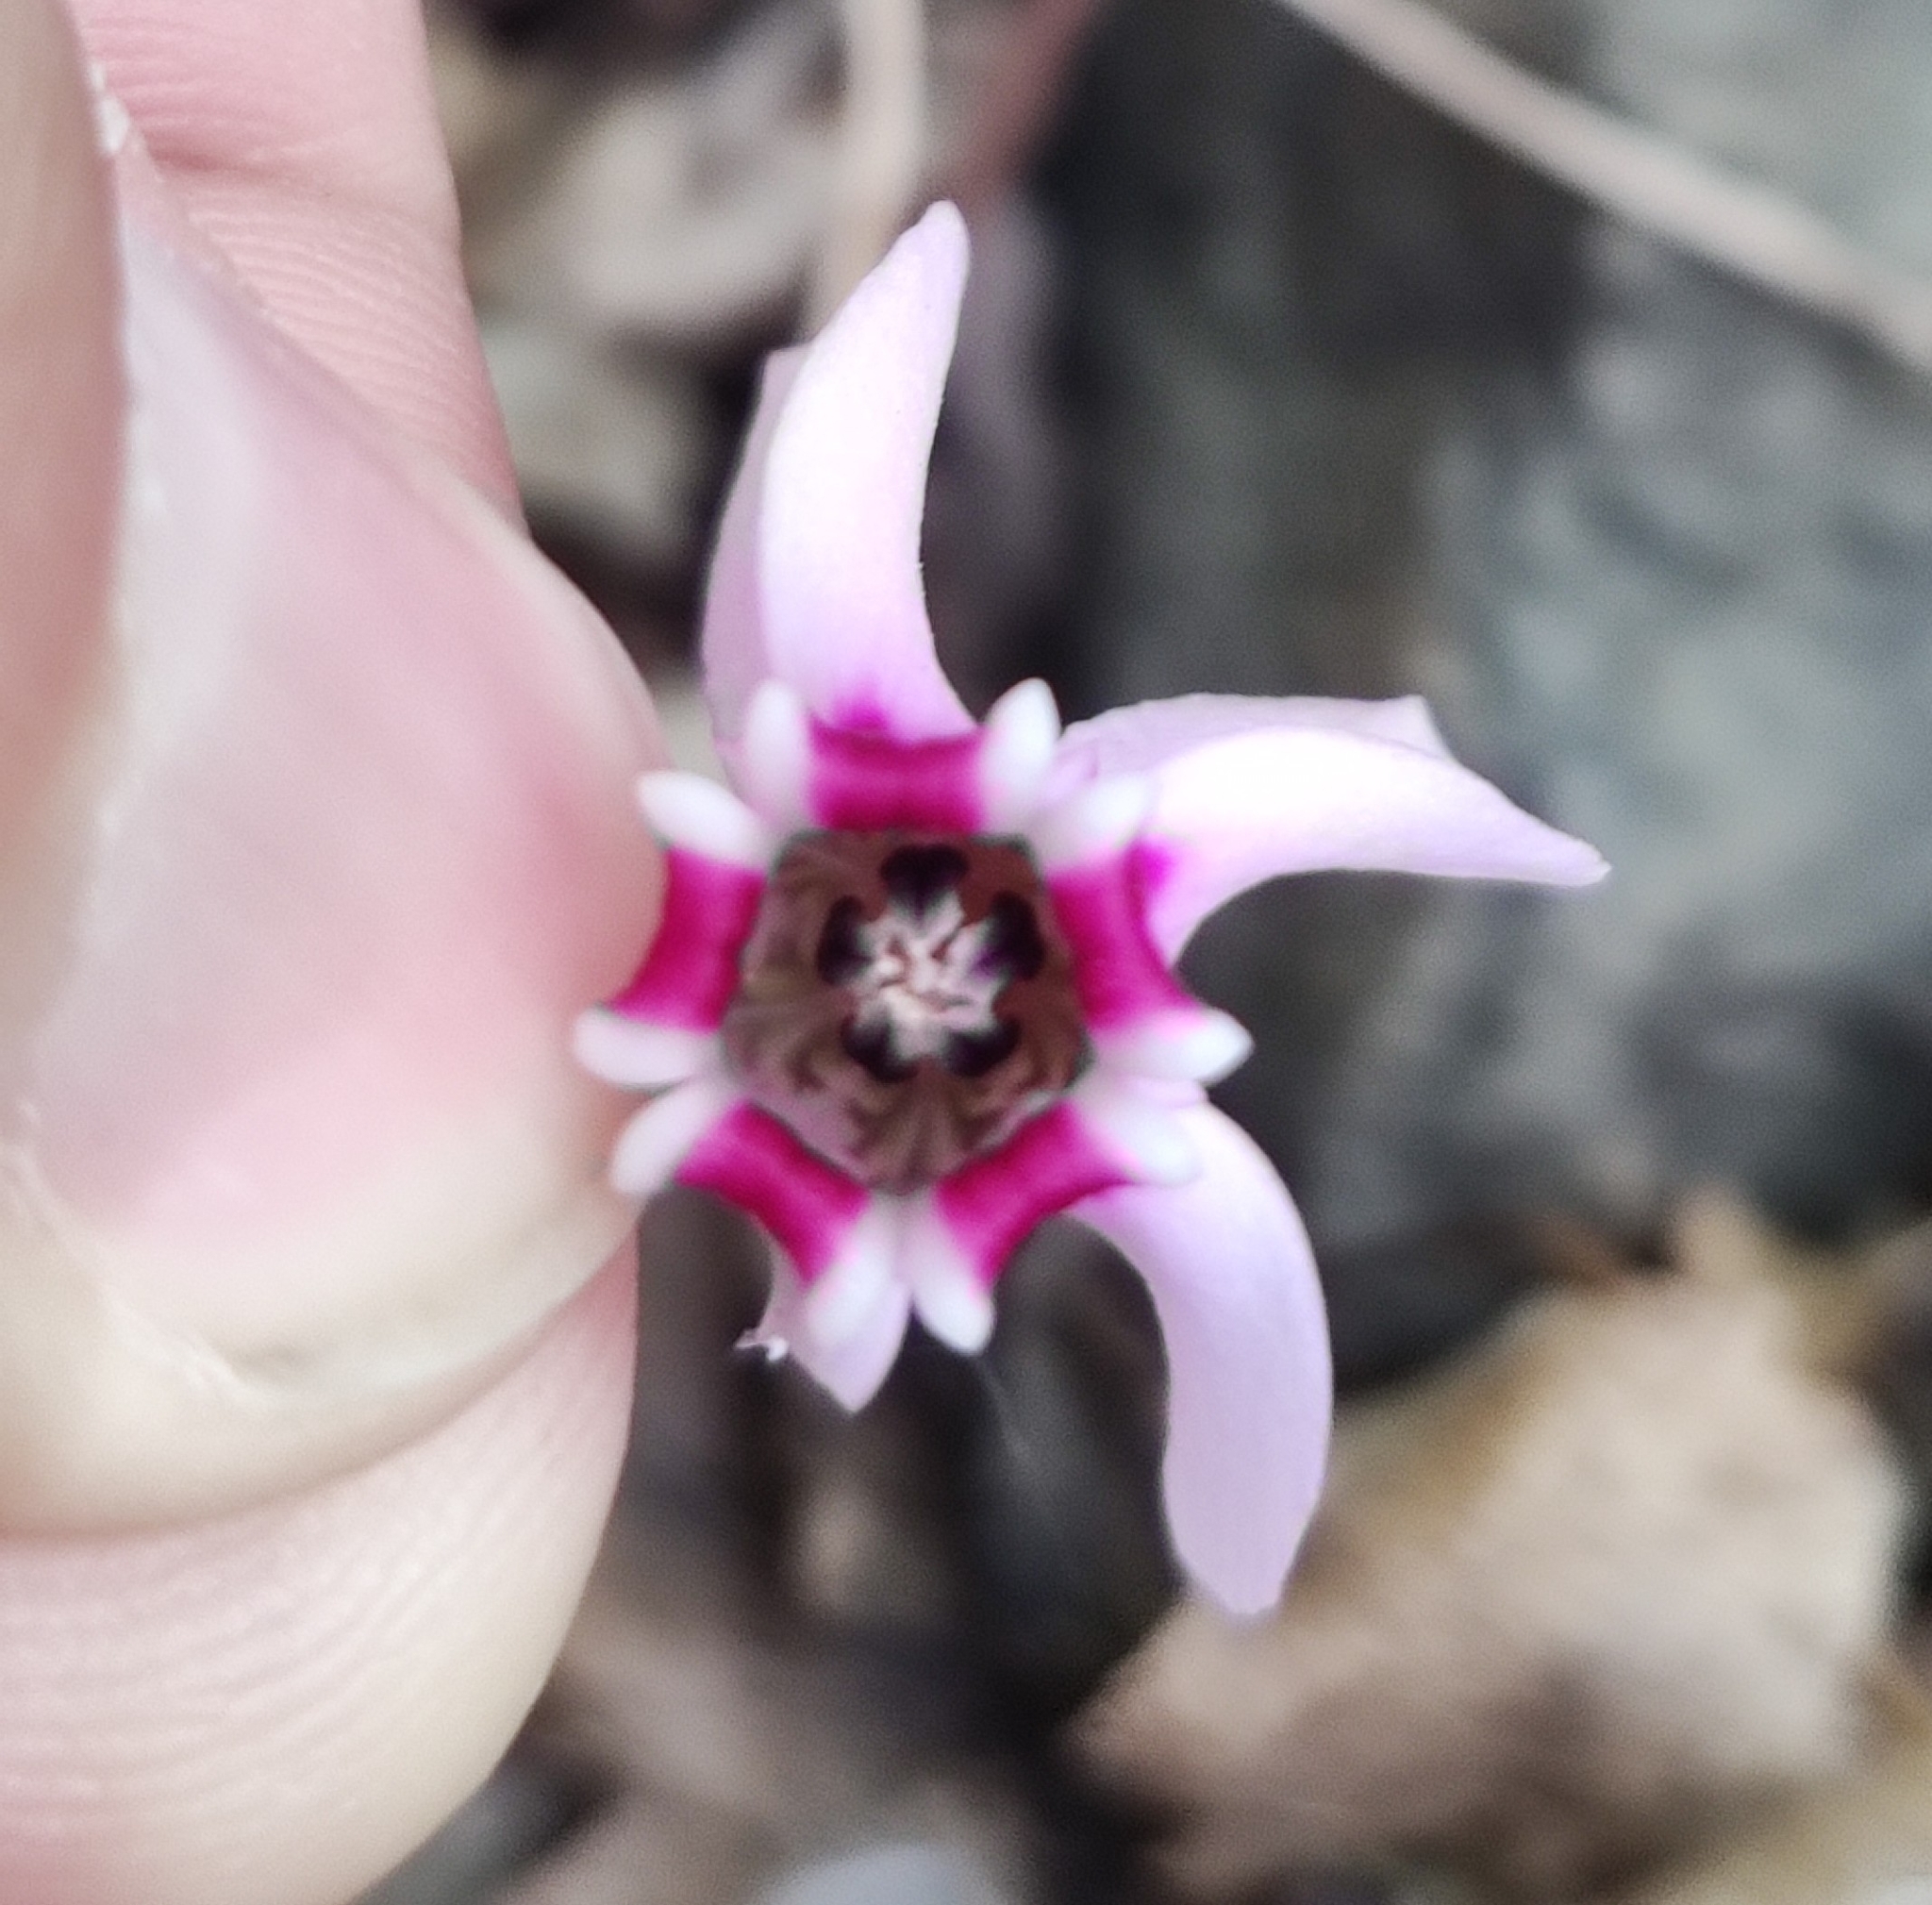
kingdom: Plantae
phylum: Tracheophyta
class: Magnoliopsida
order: Ericales
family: Primulaceae
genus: Cyclamen
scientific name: Cyclamen hederifolium
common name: Sowbread
